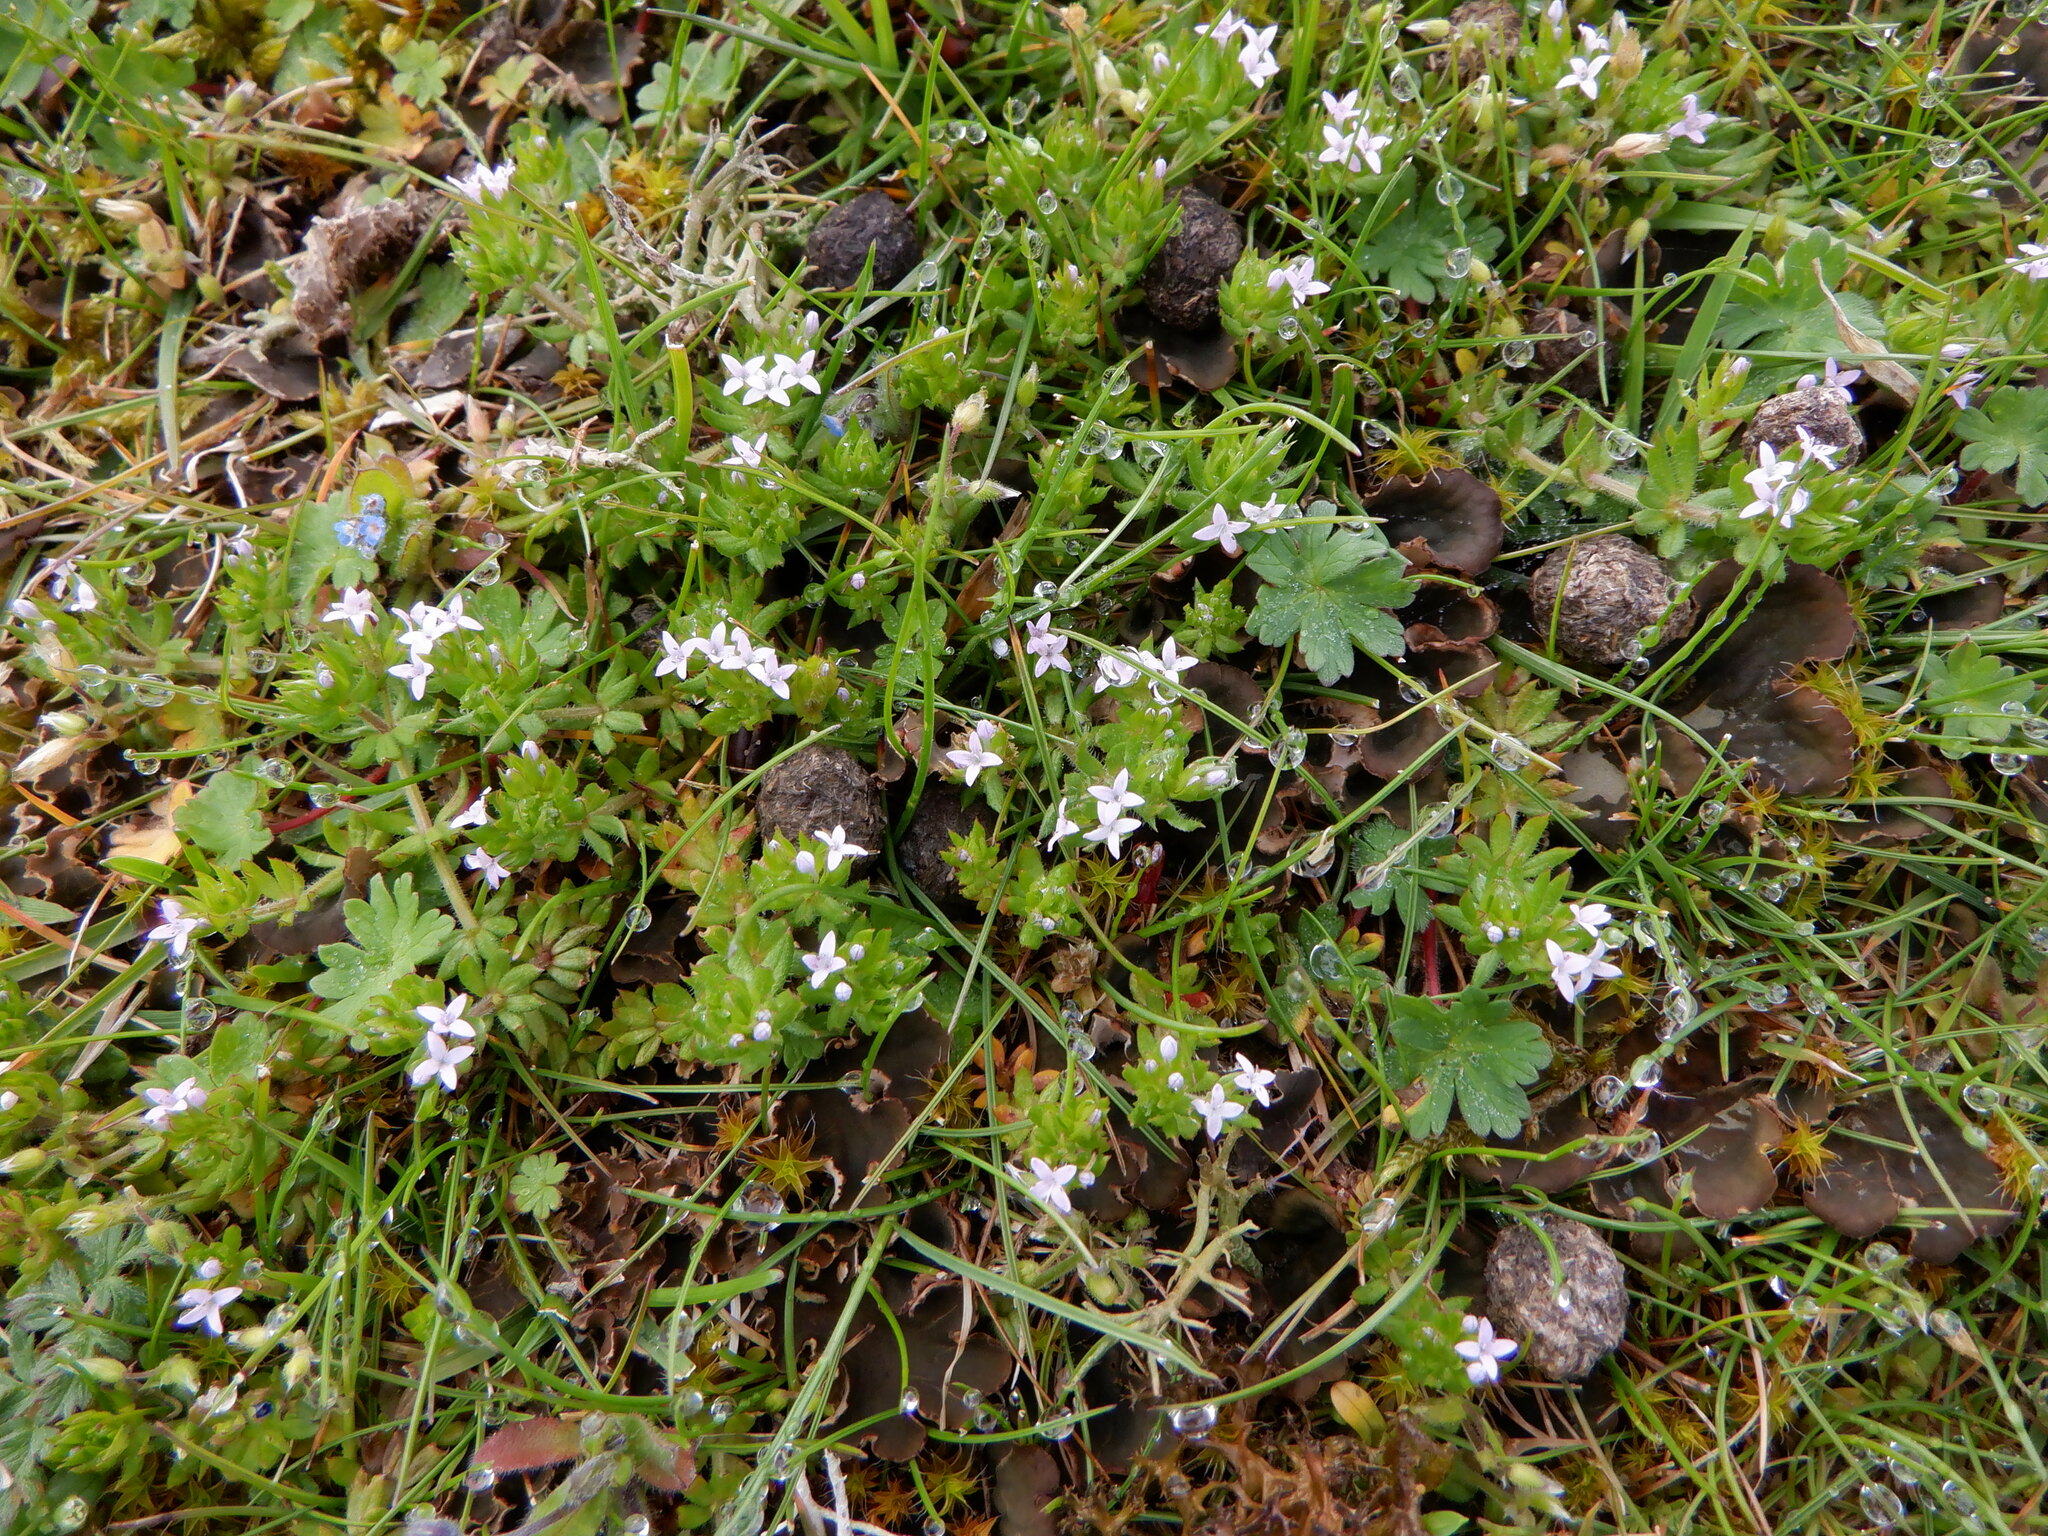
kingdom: Plantae
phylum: Tracheophyta
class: Magnoliopsida
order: Gentianales
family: Rubiaceae
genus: Sherardia
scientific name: Sherardia arvensis
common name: Field madder
